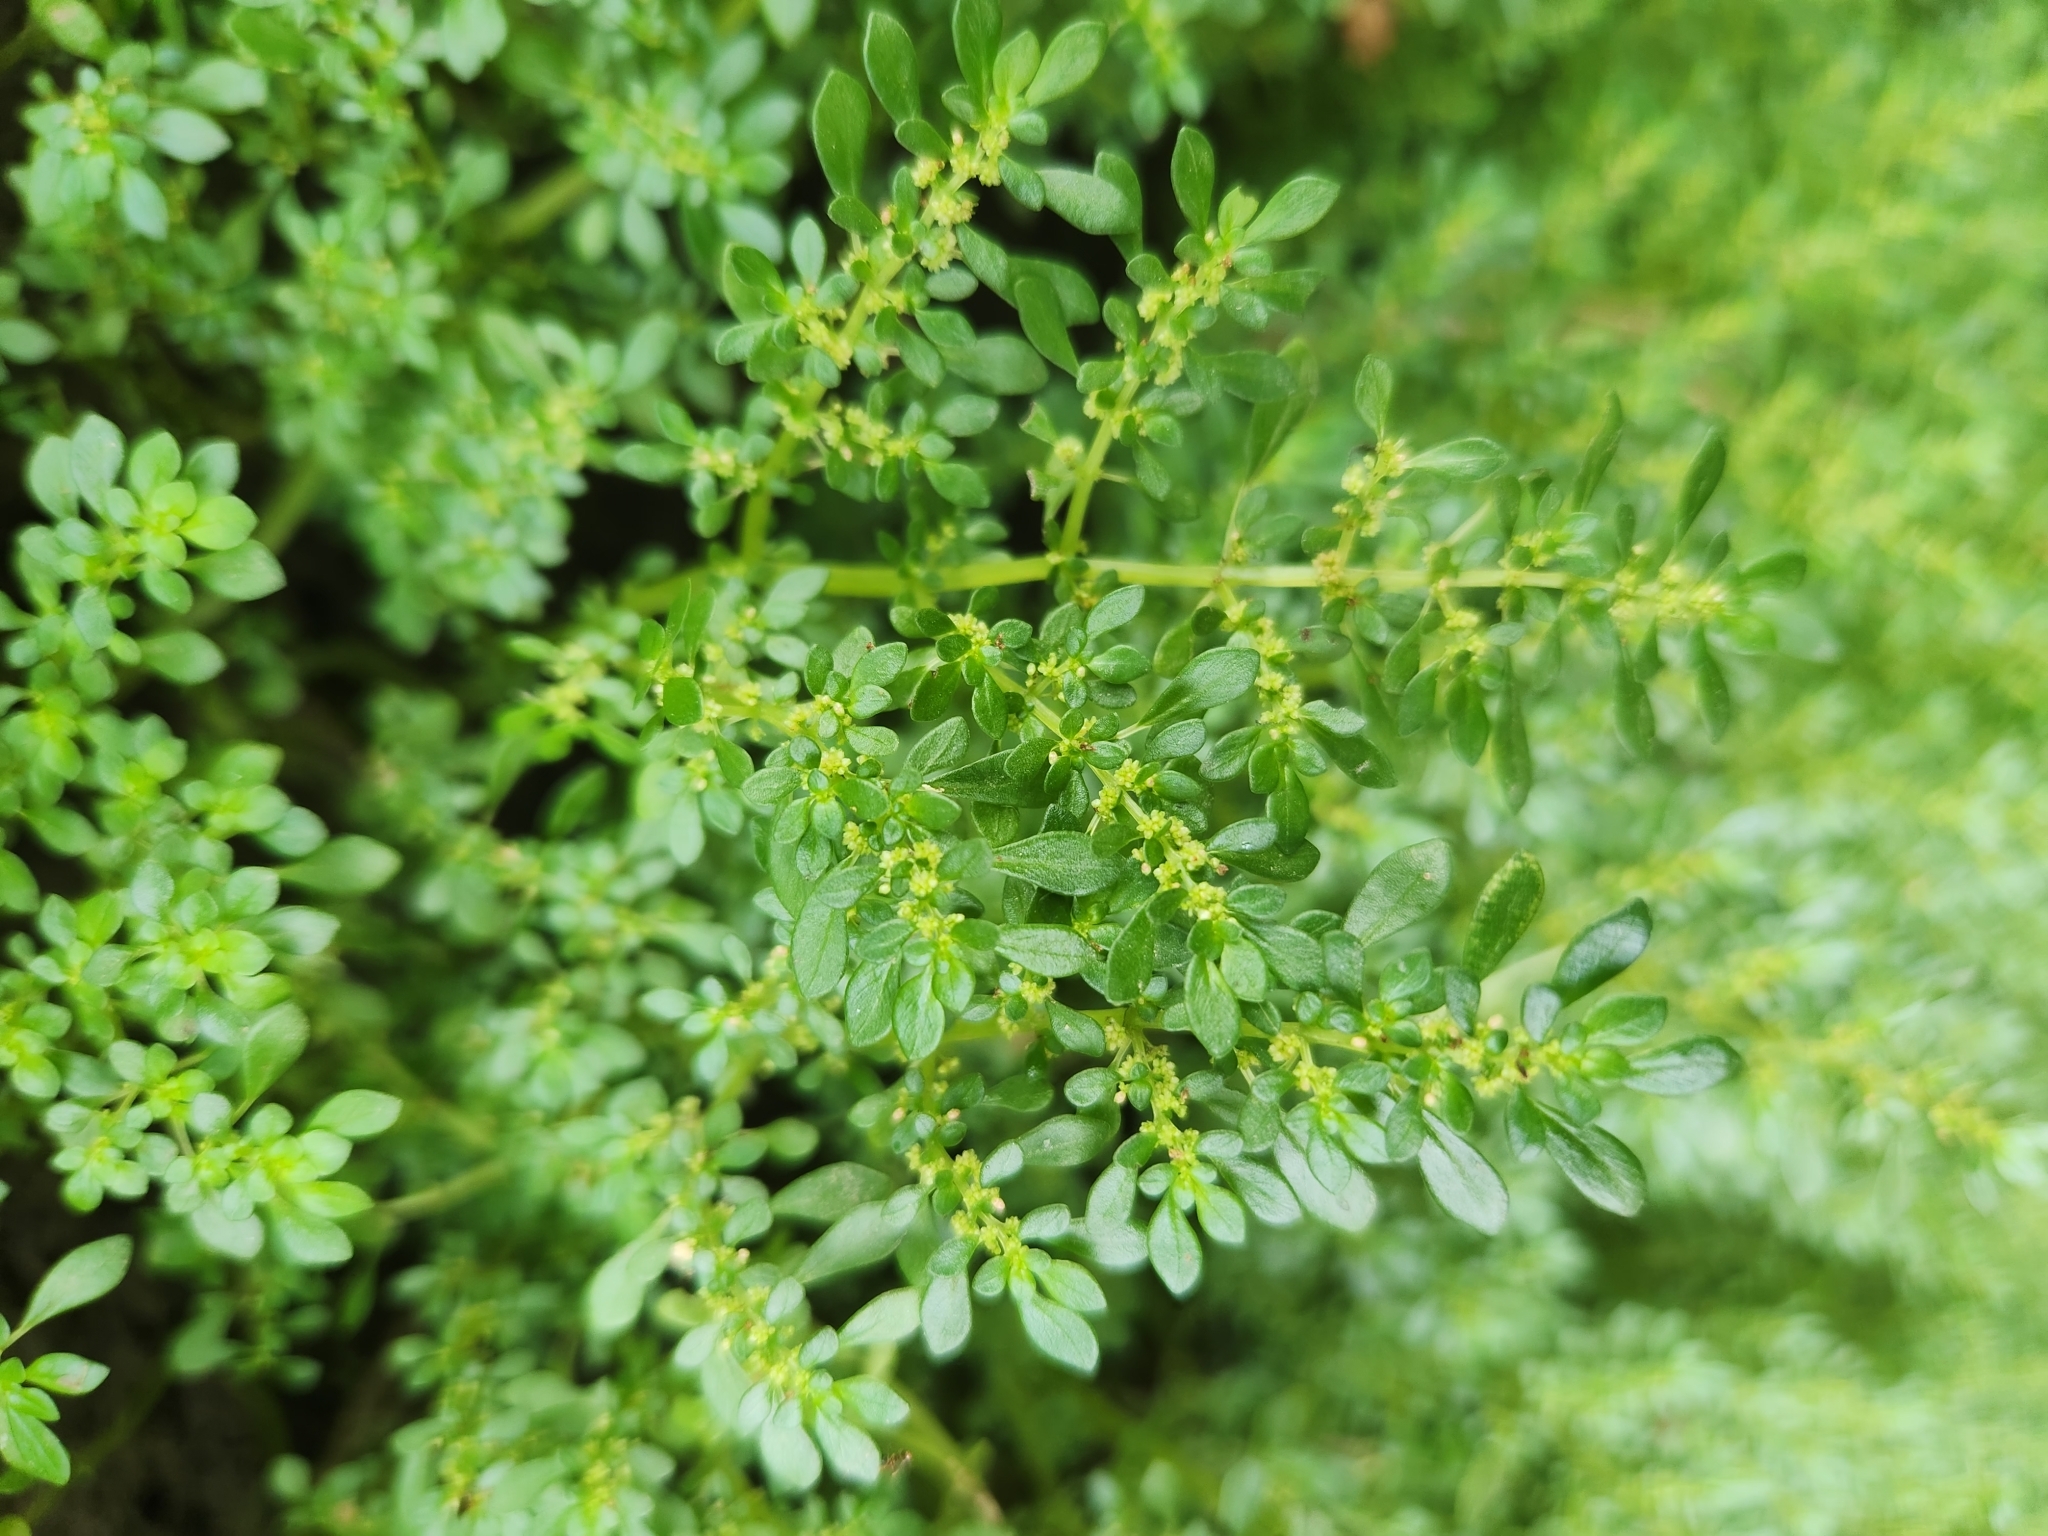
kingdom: Plantae
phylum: Tracheophyta
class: Magnoliopsida
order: Rosales
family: Urticaceae
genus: Pilea
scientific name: Pilea microphylla
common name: Artillery-plant
